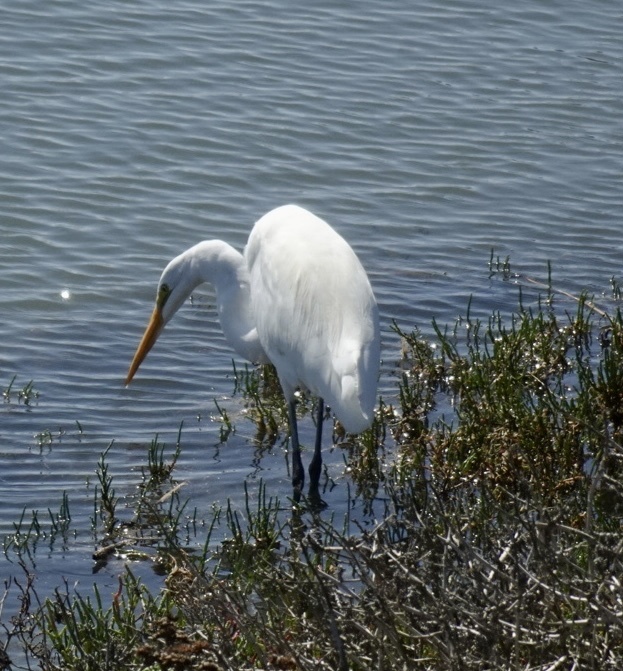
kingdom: Animalia
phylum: Chordata
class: Aves
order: Pelecaniformes
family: Ardeidae
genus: Ardea
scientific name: Ardea alba
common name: Great egret
